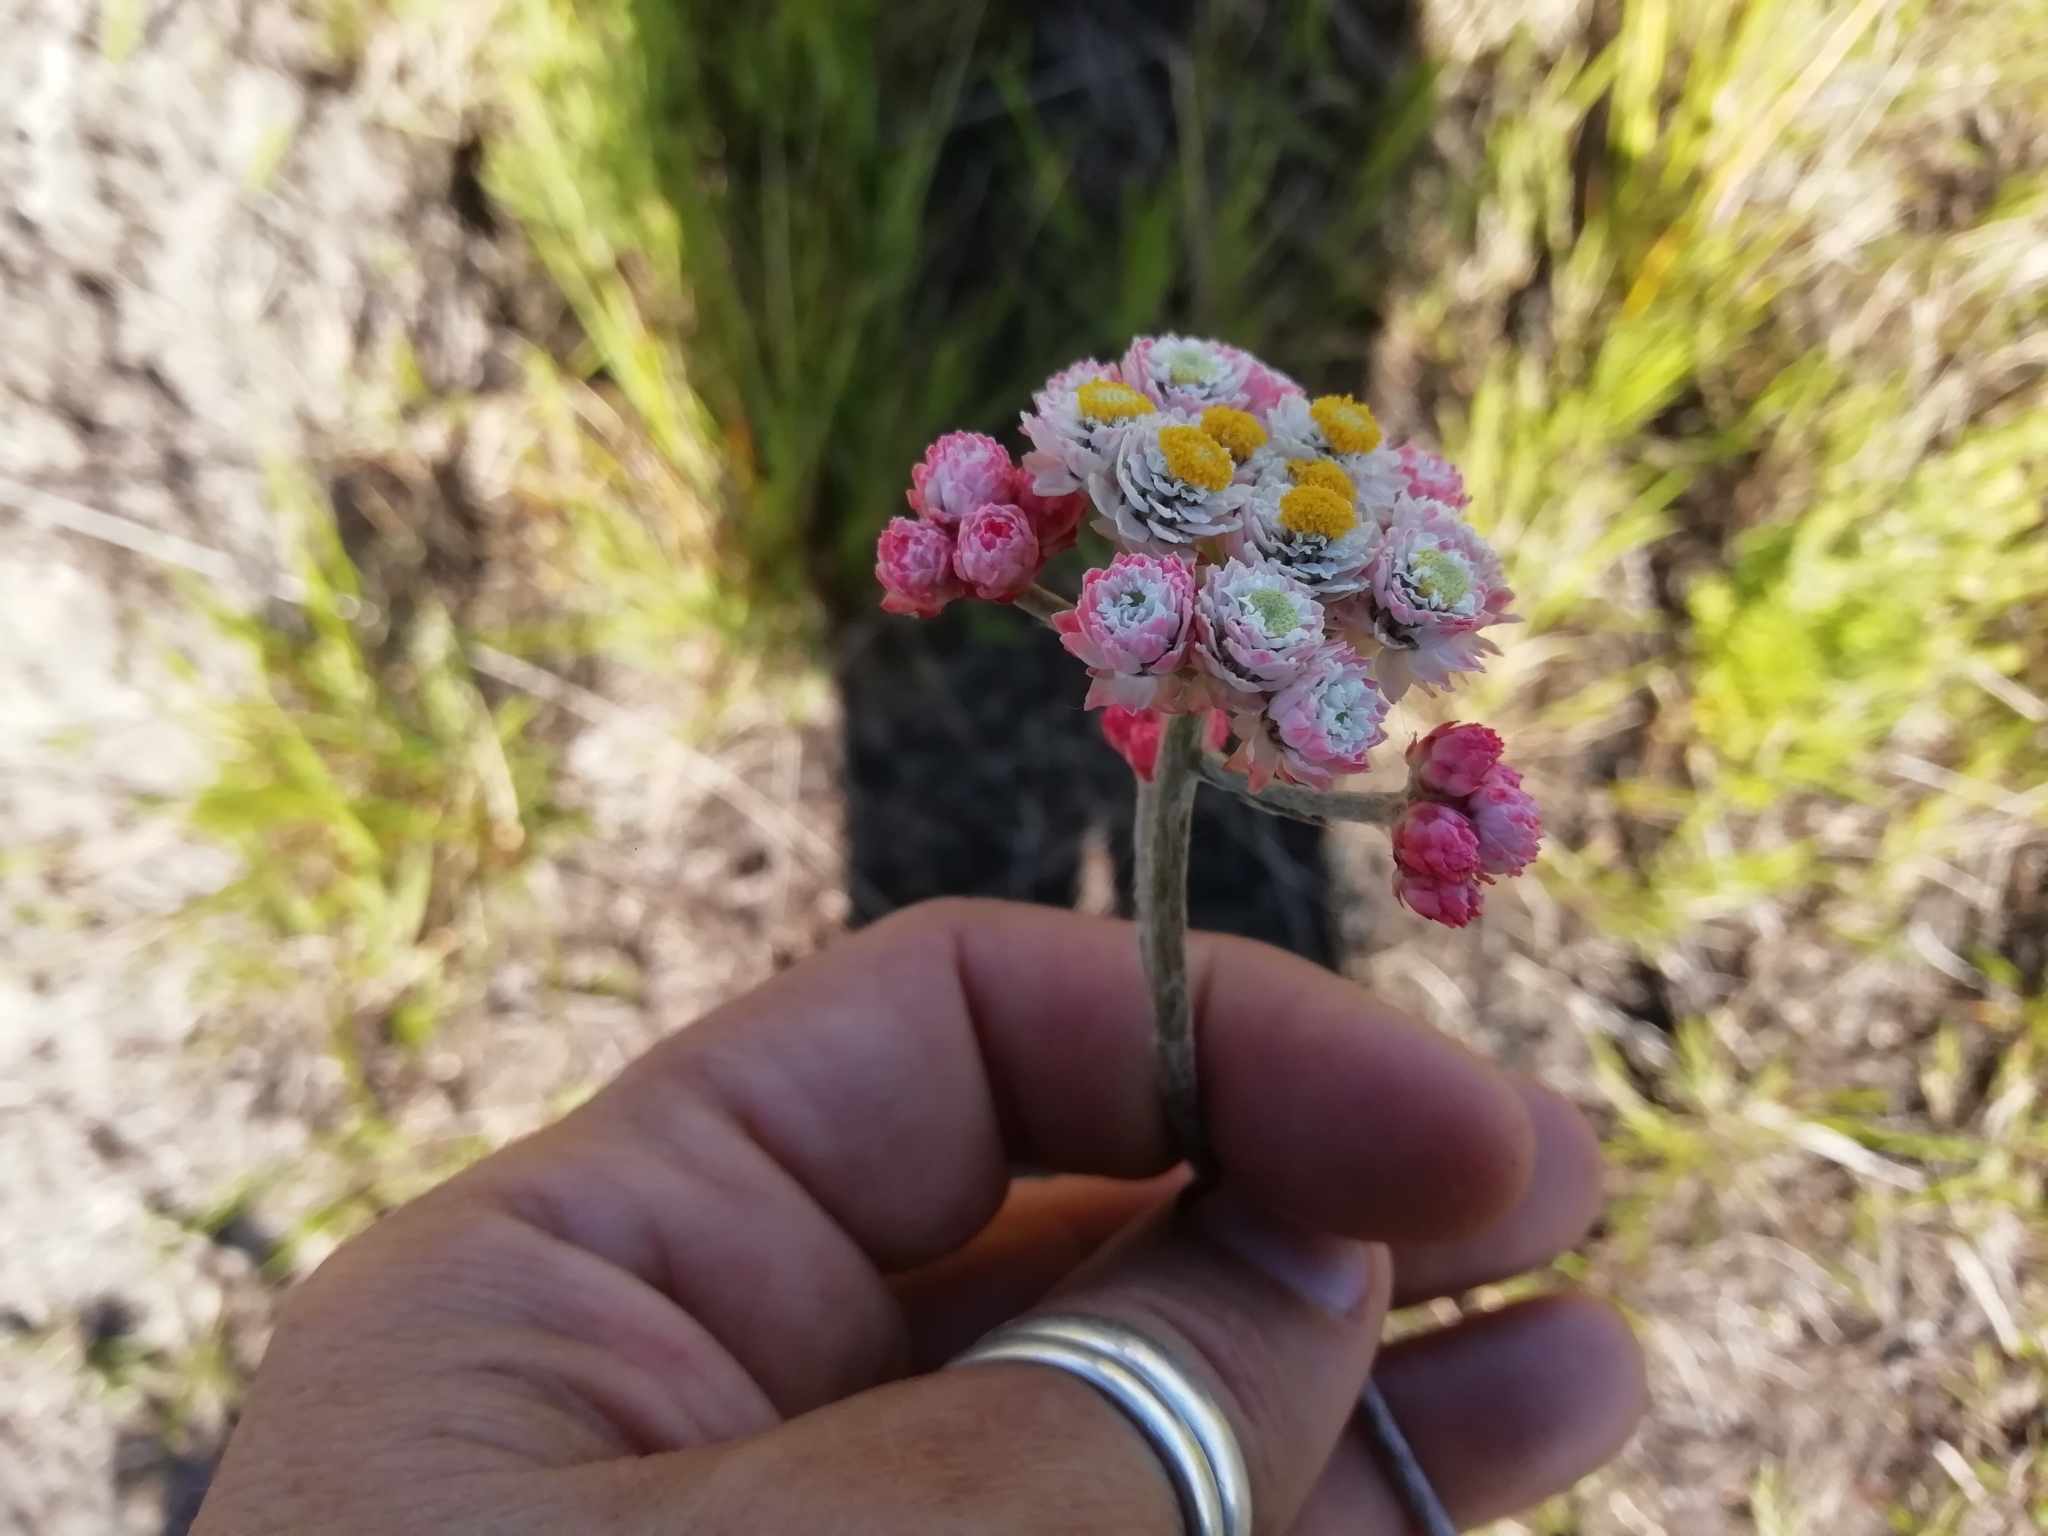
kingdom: Plantae
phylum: Tracheophyta
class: Magnoliopsida
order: Asterales
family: Asteraceae
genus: Helichrysum
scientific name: Helichrysum felinum
